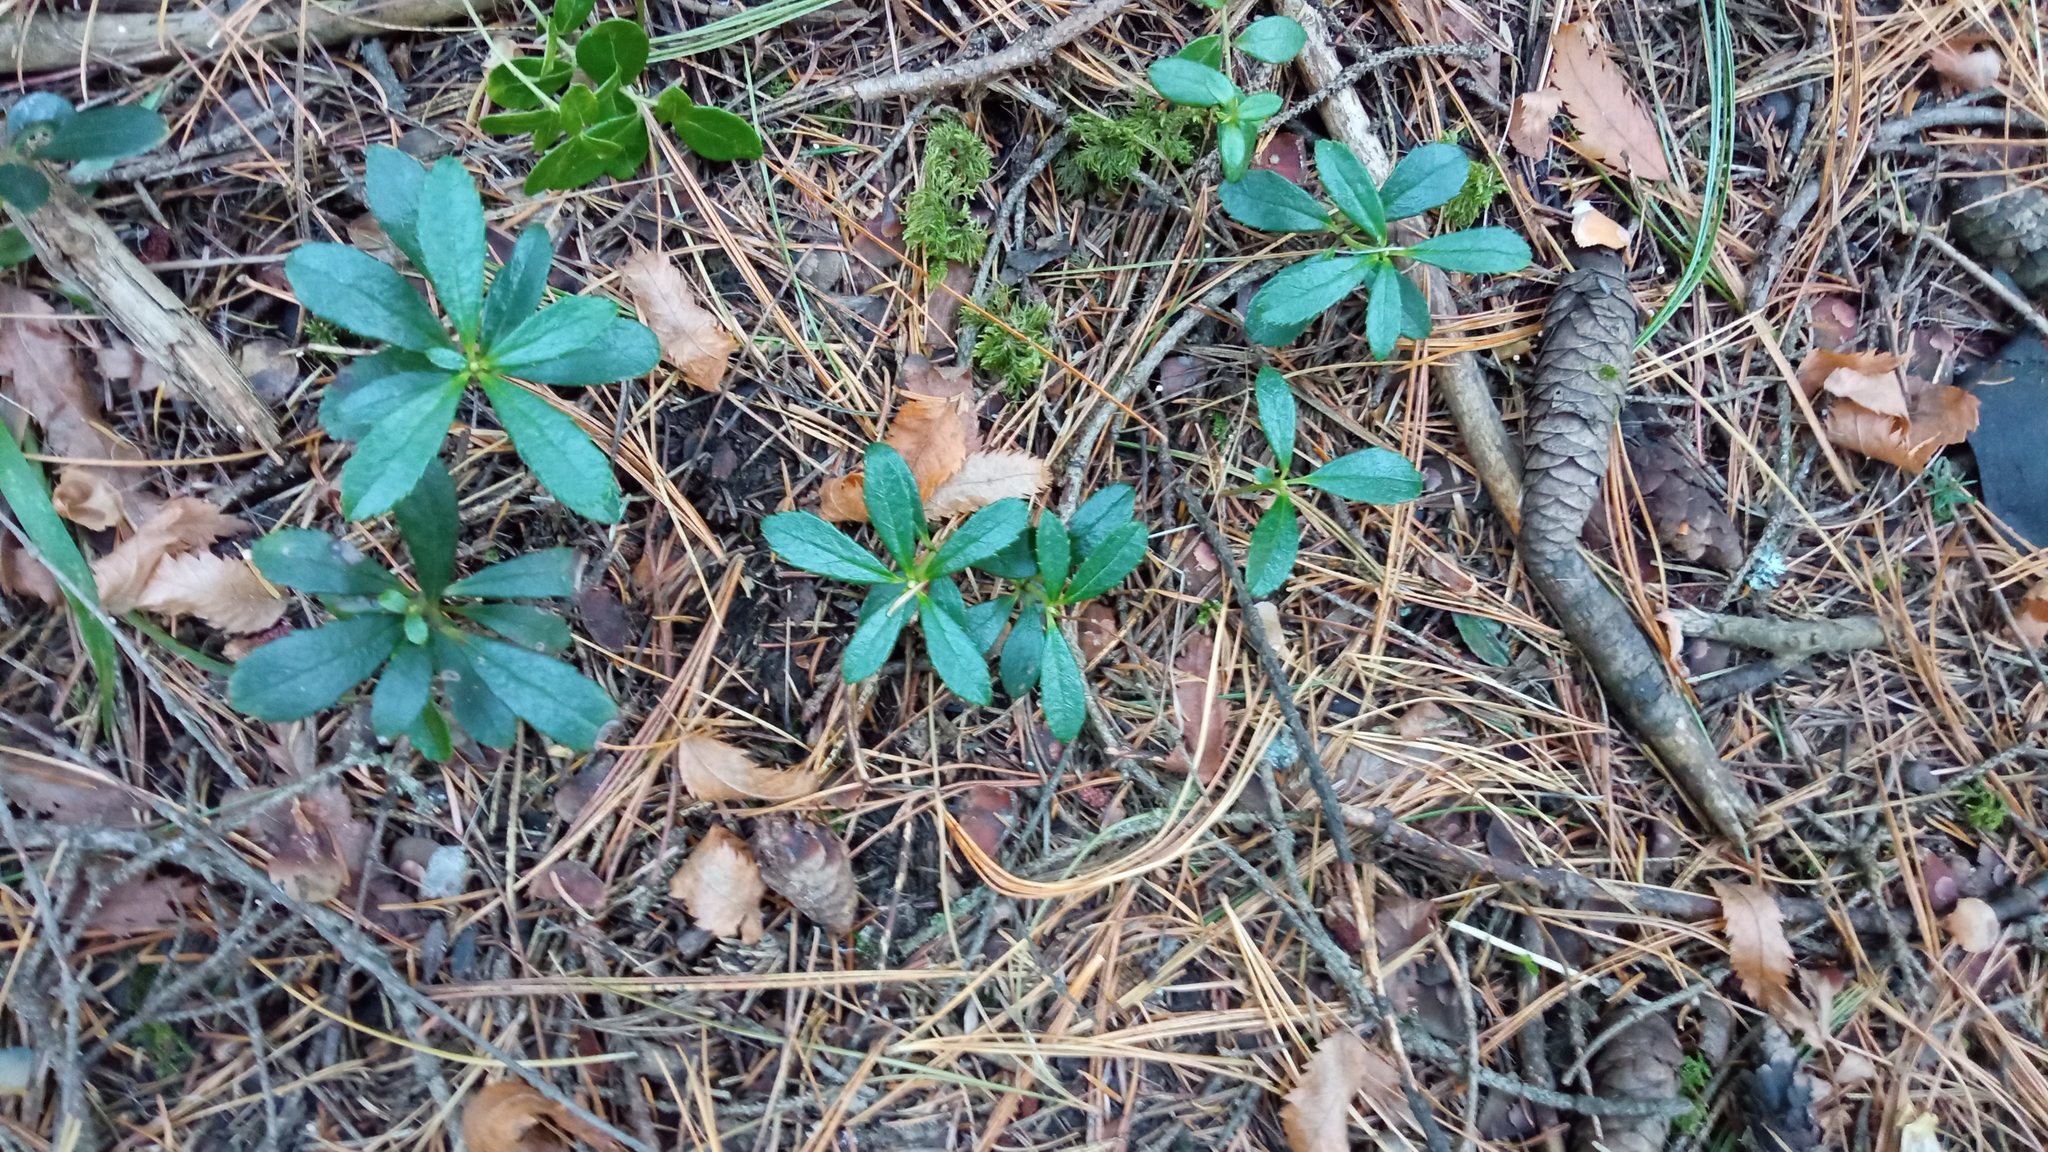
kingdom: Plantae
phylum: Tracheophyta
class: Magnoliopsida
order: Ericales
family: Ericaceae
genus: Chimaphila
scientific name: Chimaphila umbellata
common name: Pipsissewa
